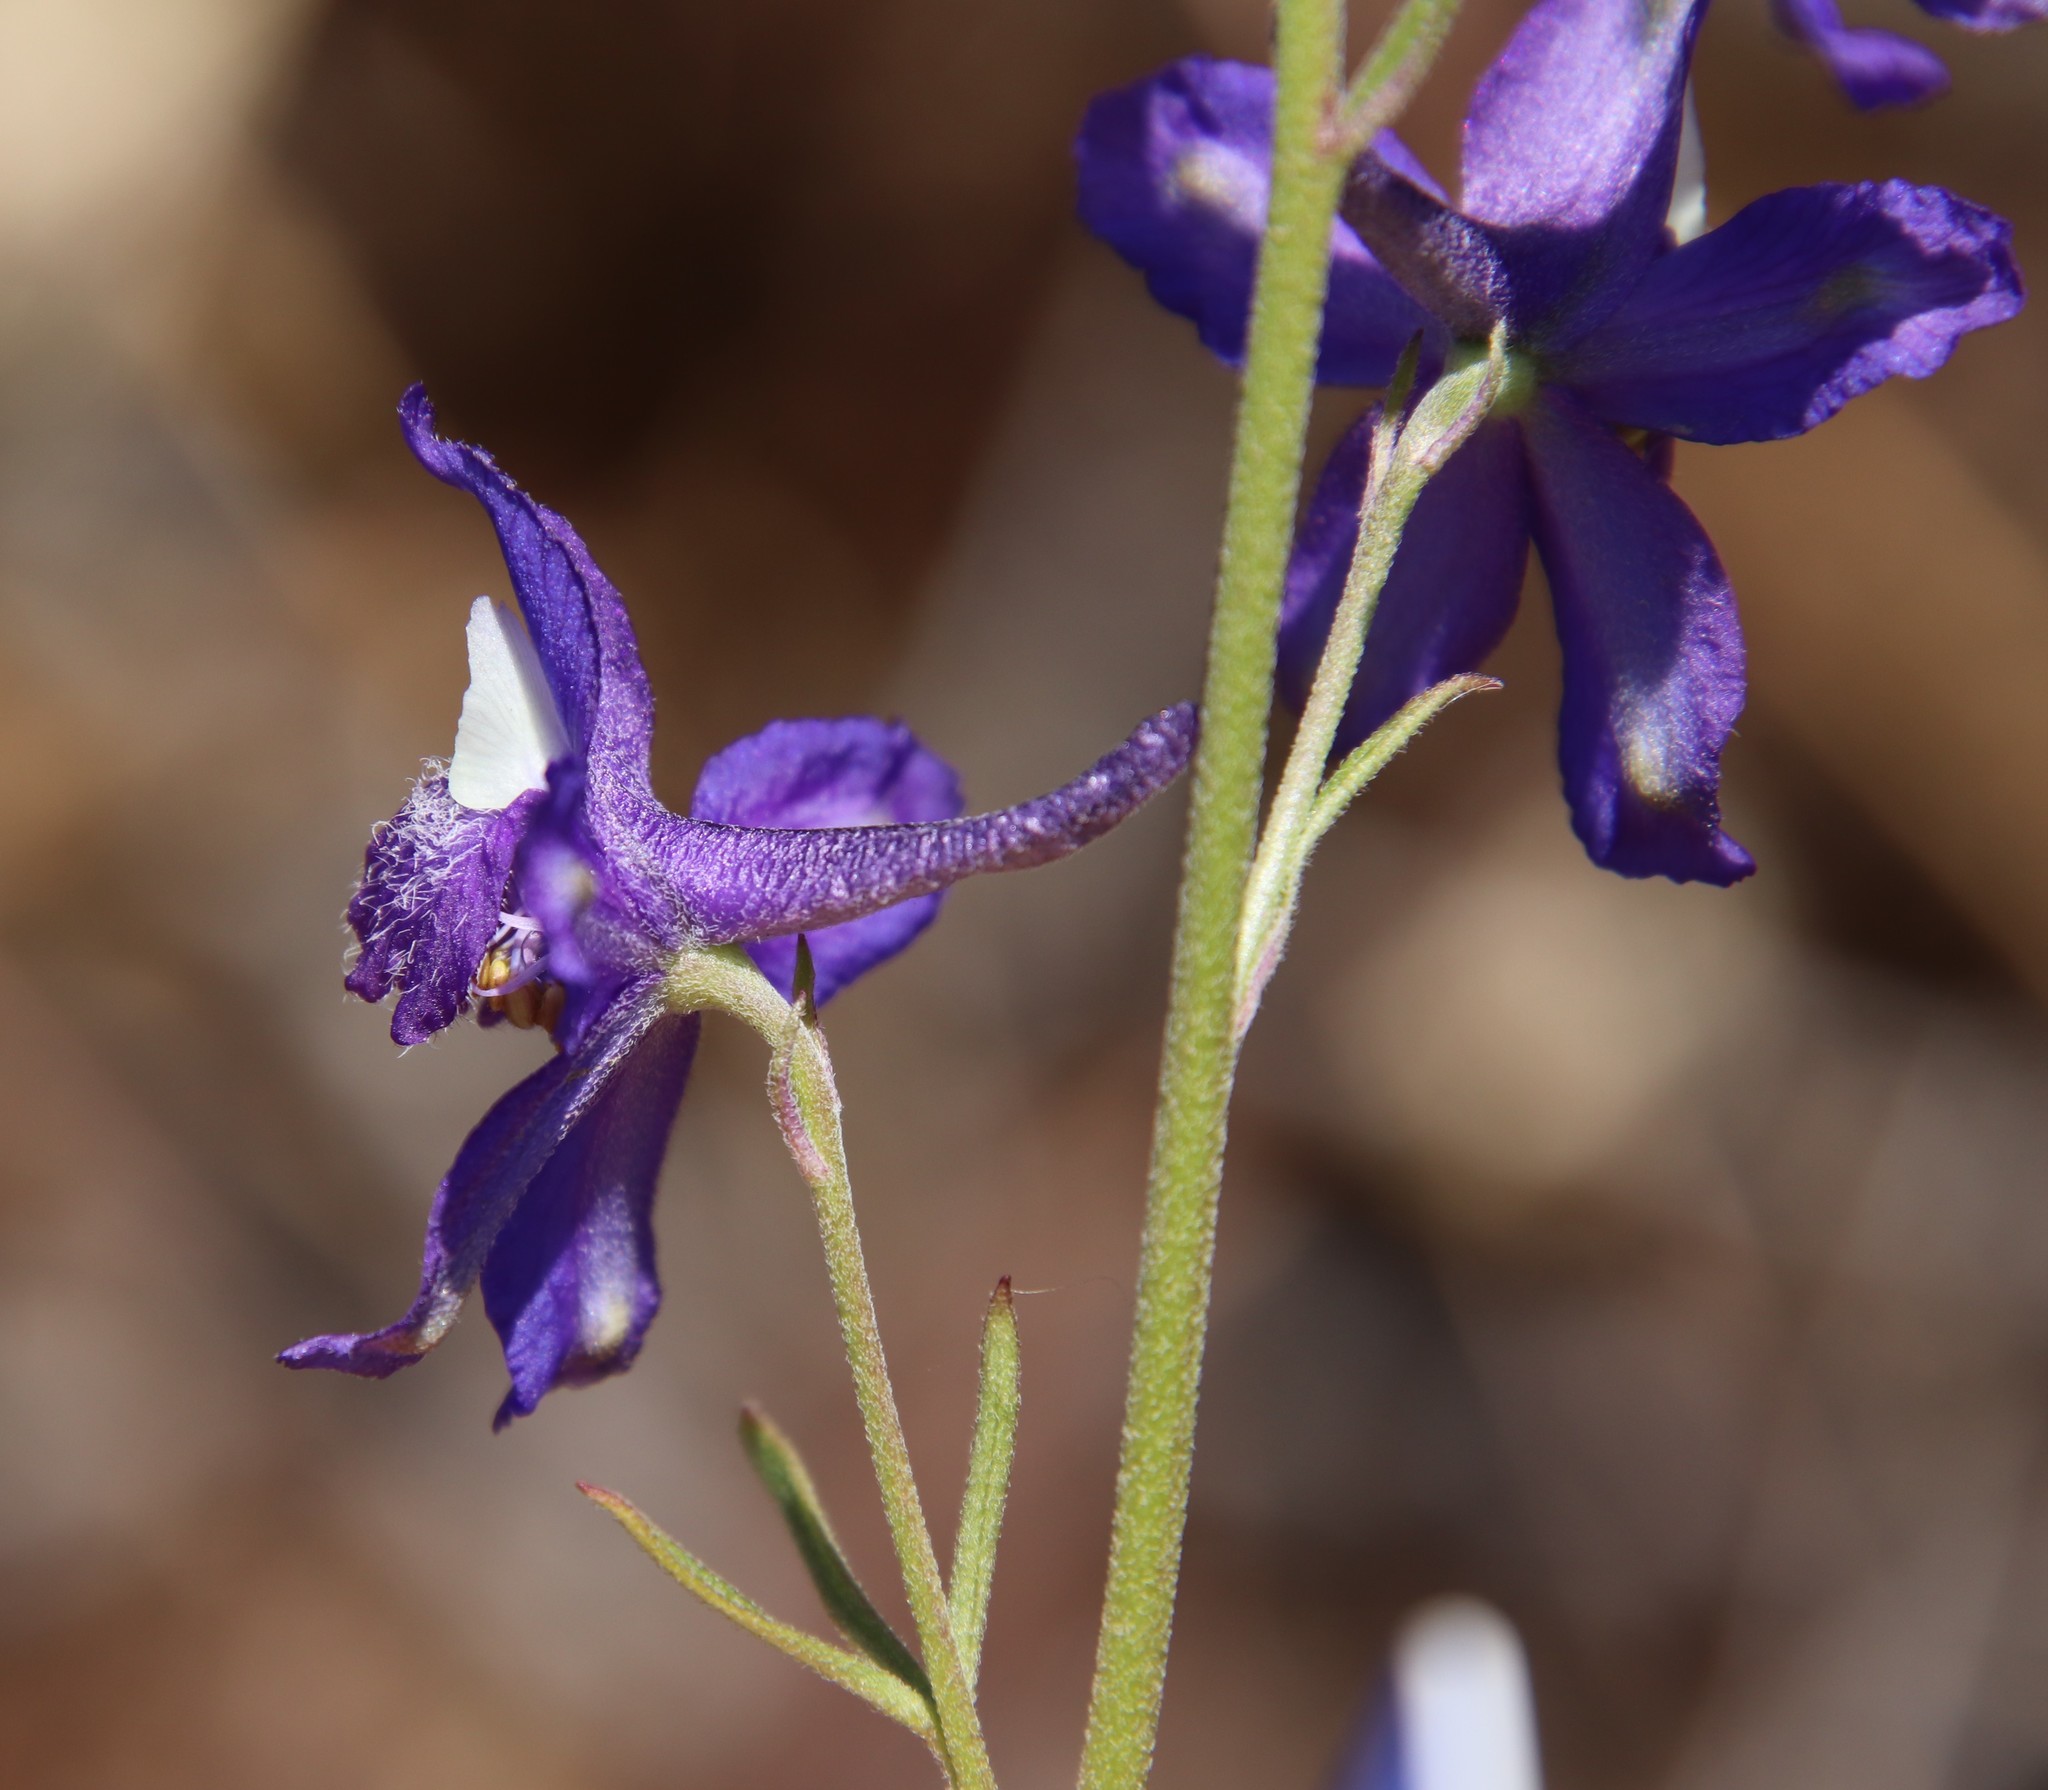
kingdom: Plantae
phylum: Tracheophyta
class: Magnoliopsida
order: Ranunculales
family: Ranunculaceae
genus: Delphinium
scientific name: Delphinium parryi
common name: Parry's larkspur
